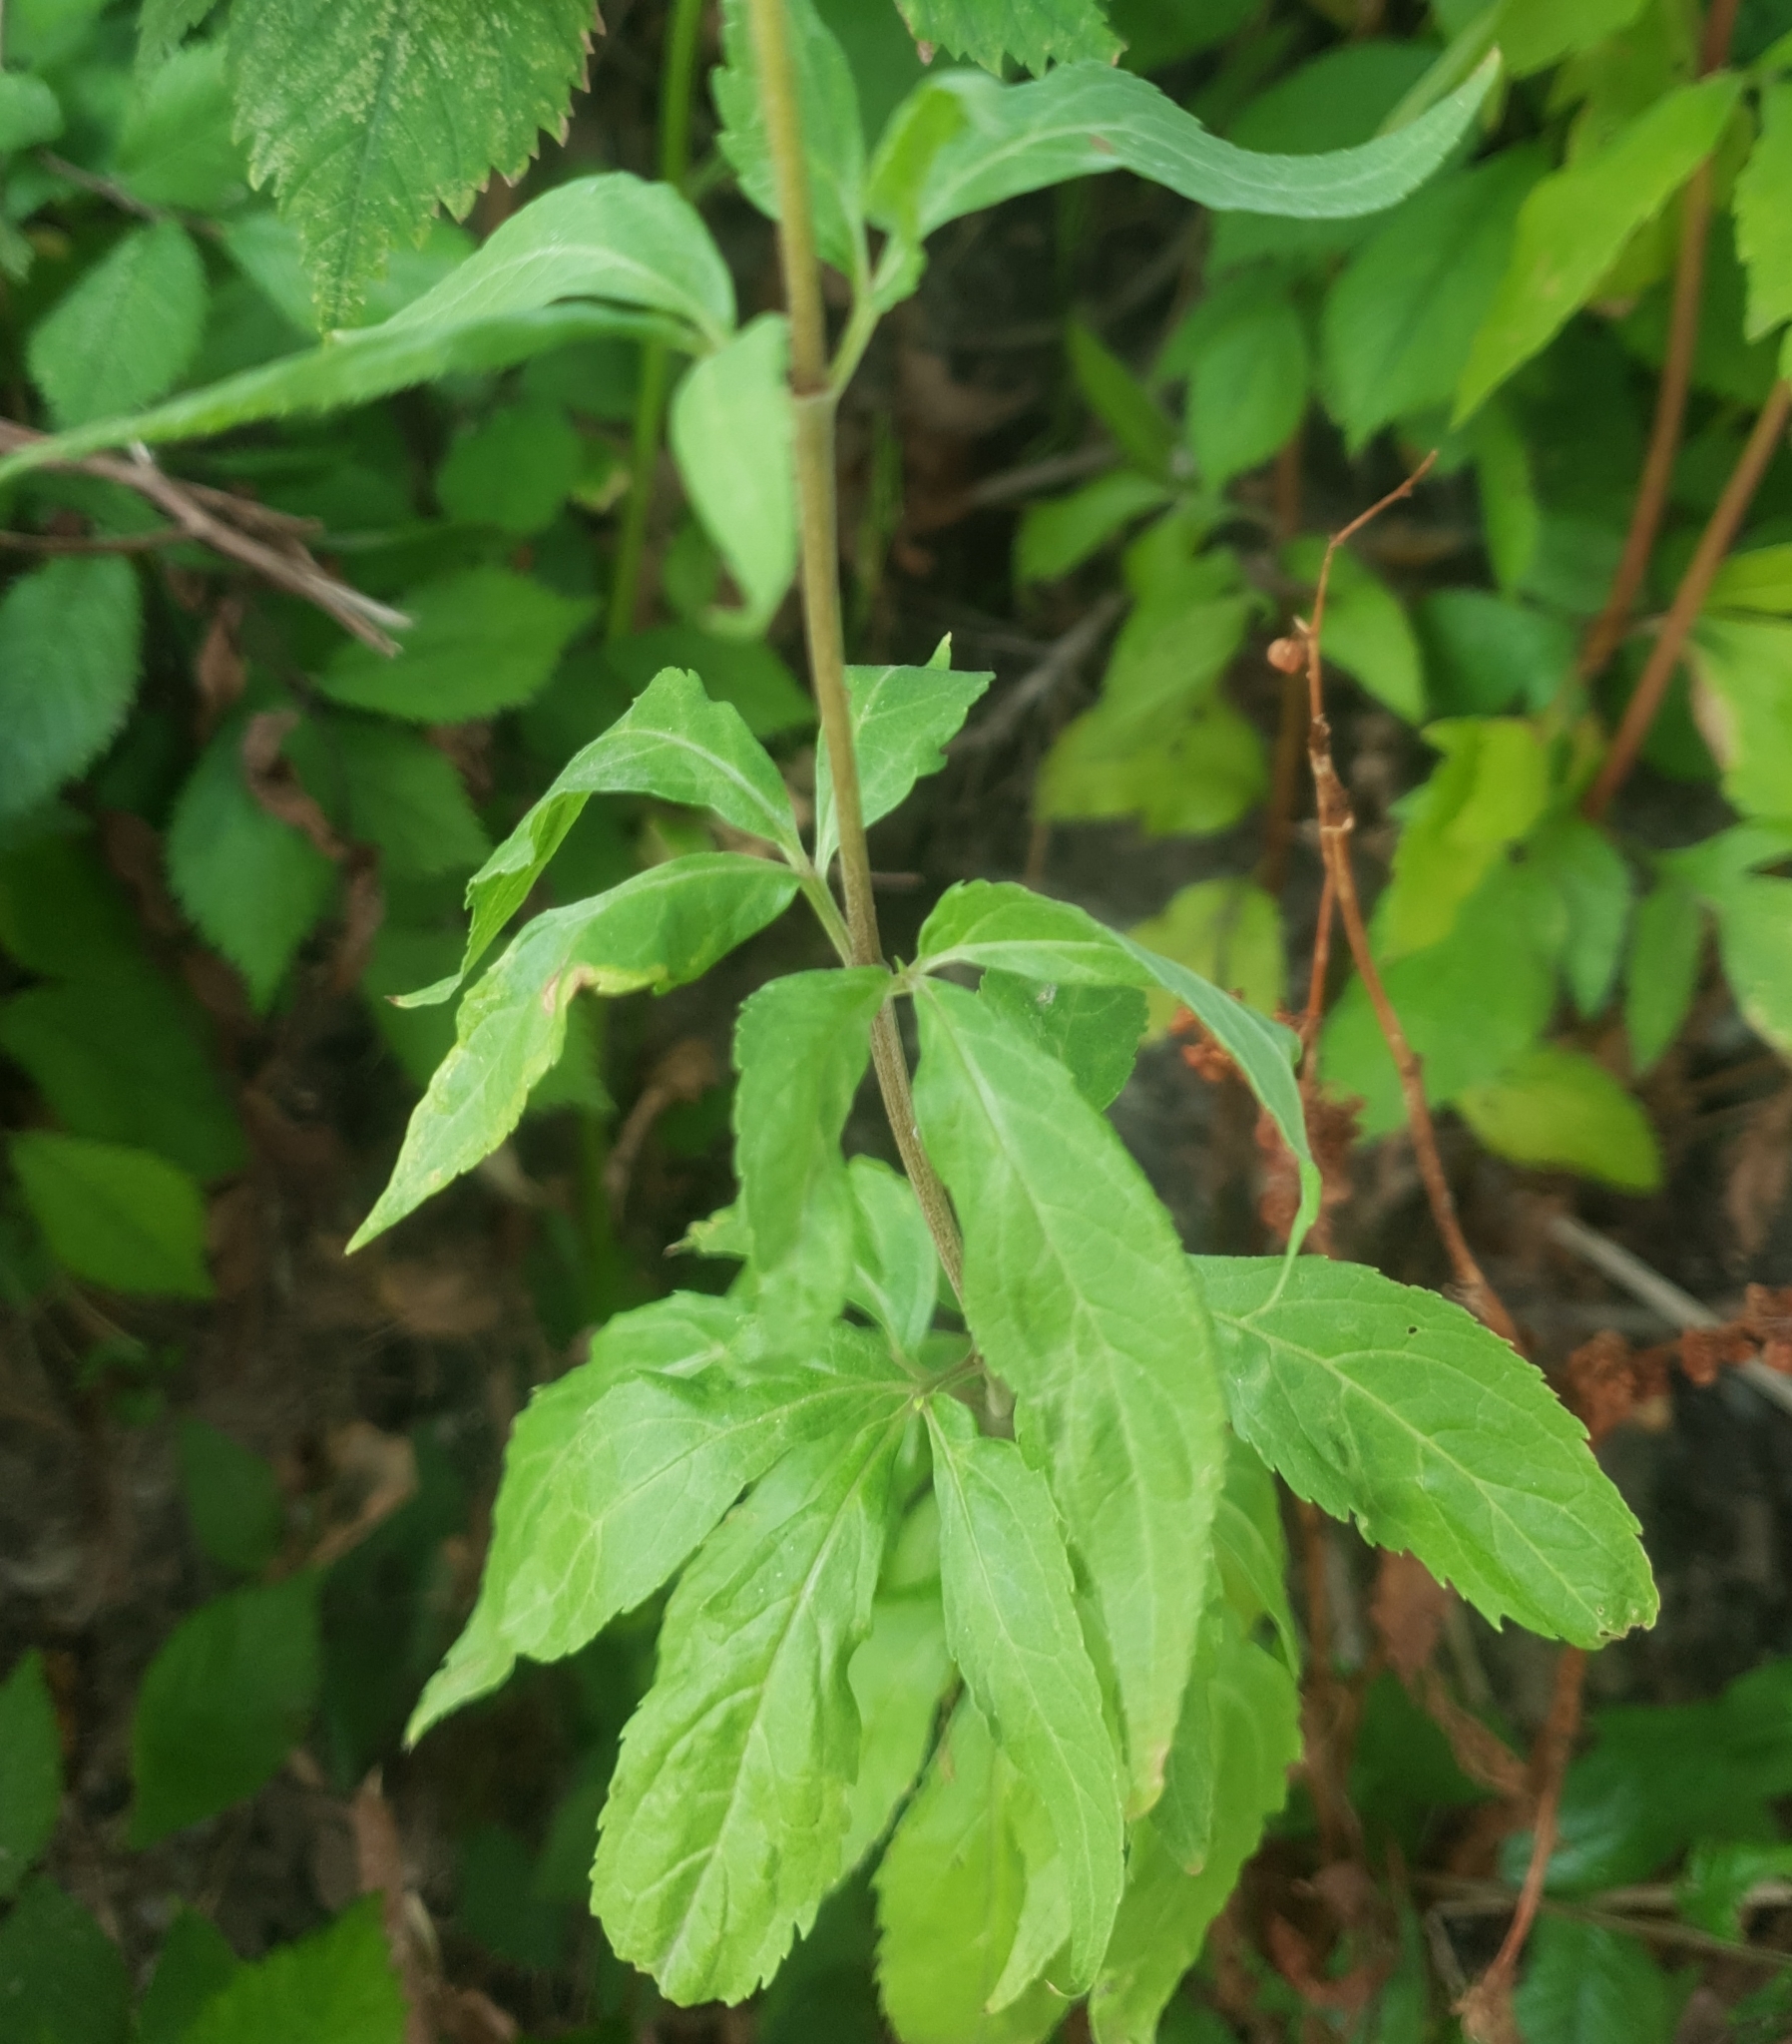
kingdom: Plantae
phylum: Tracheophyta
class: Magnoliopsida
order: Asterales
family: Asteraceae
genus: Eupatorium
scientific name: Eupatorium cannabinum
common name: Hemp-agrimony
